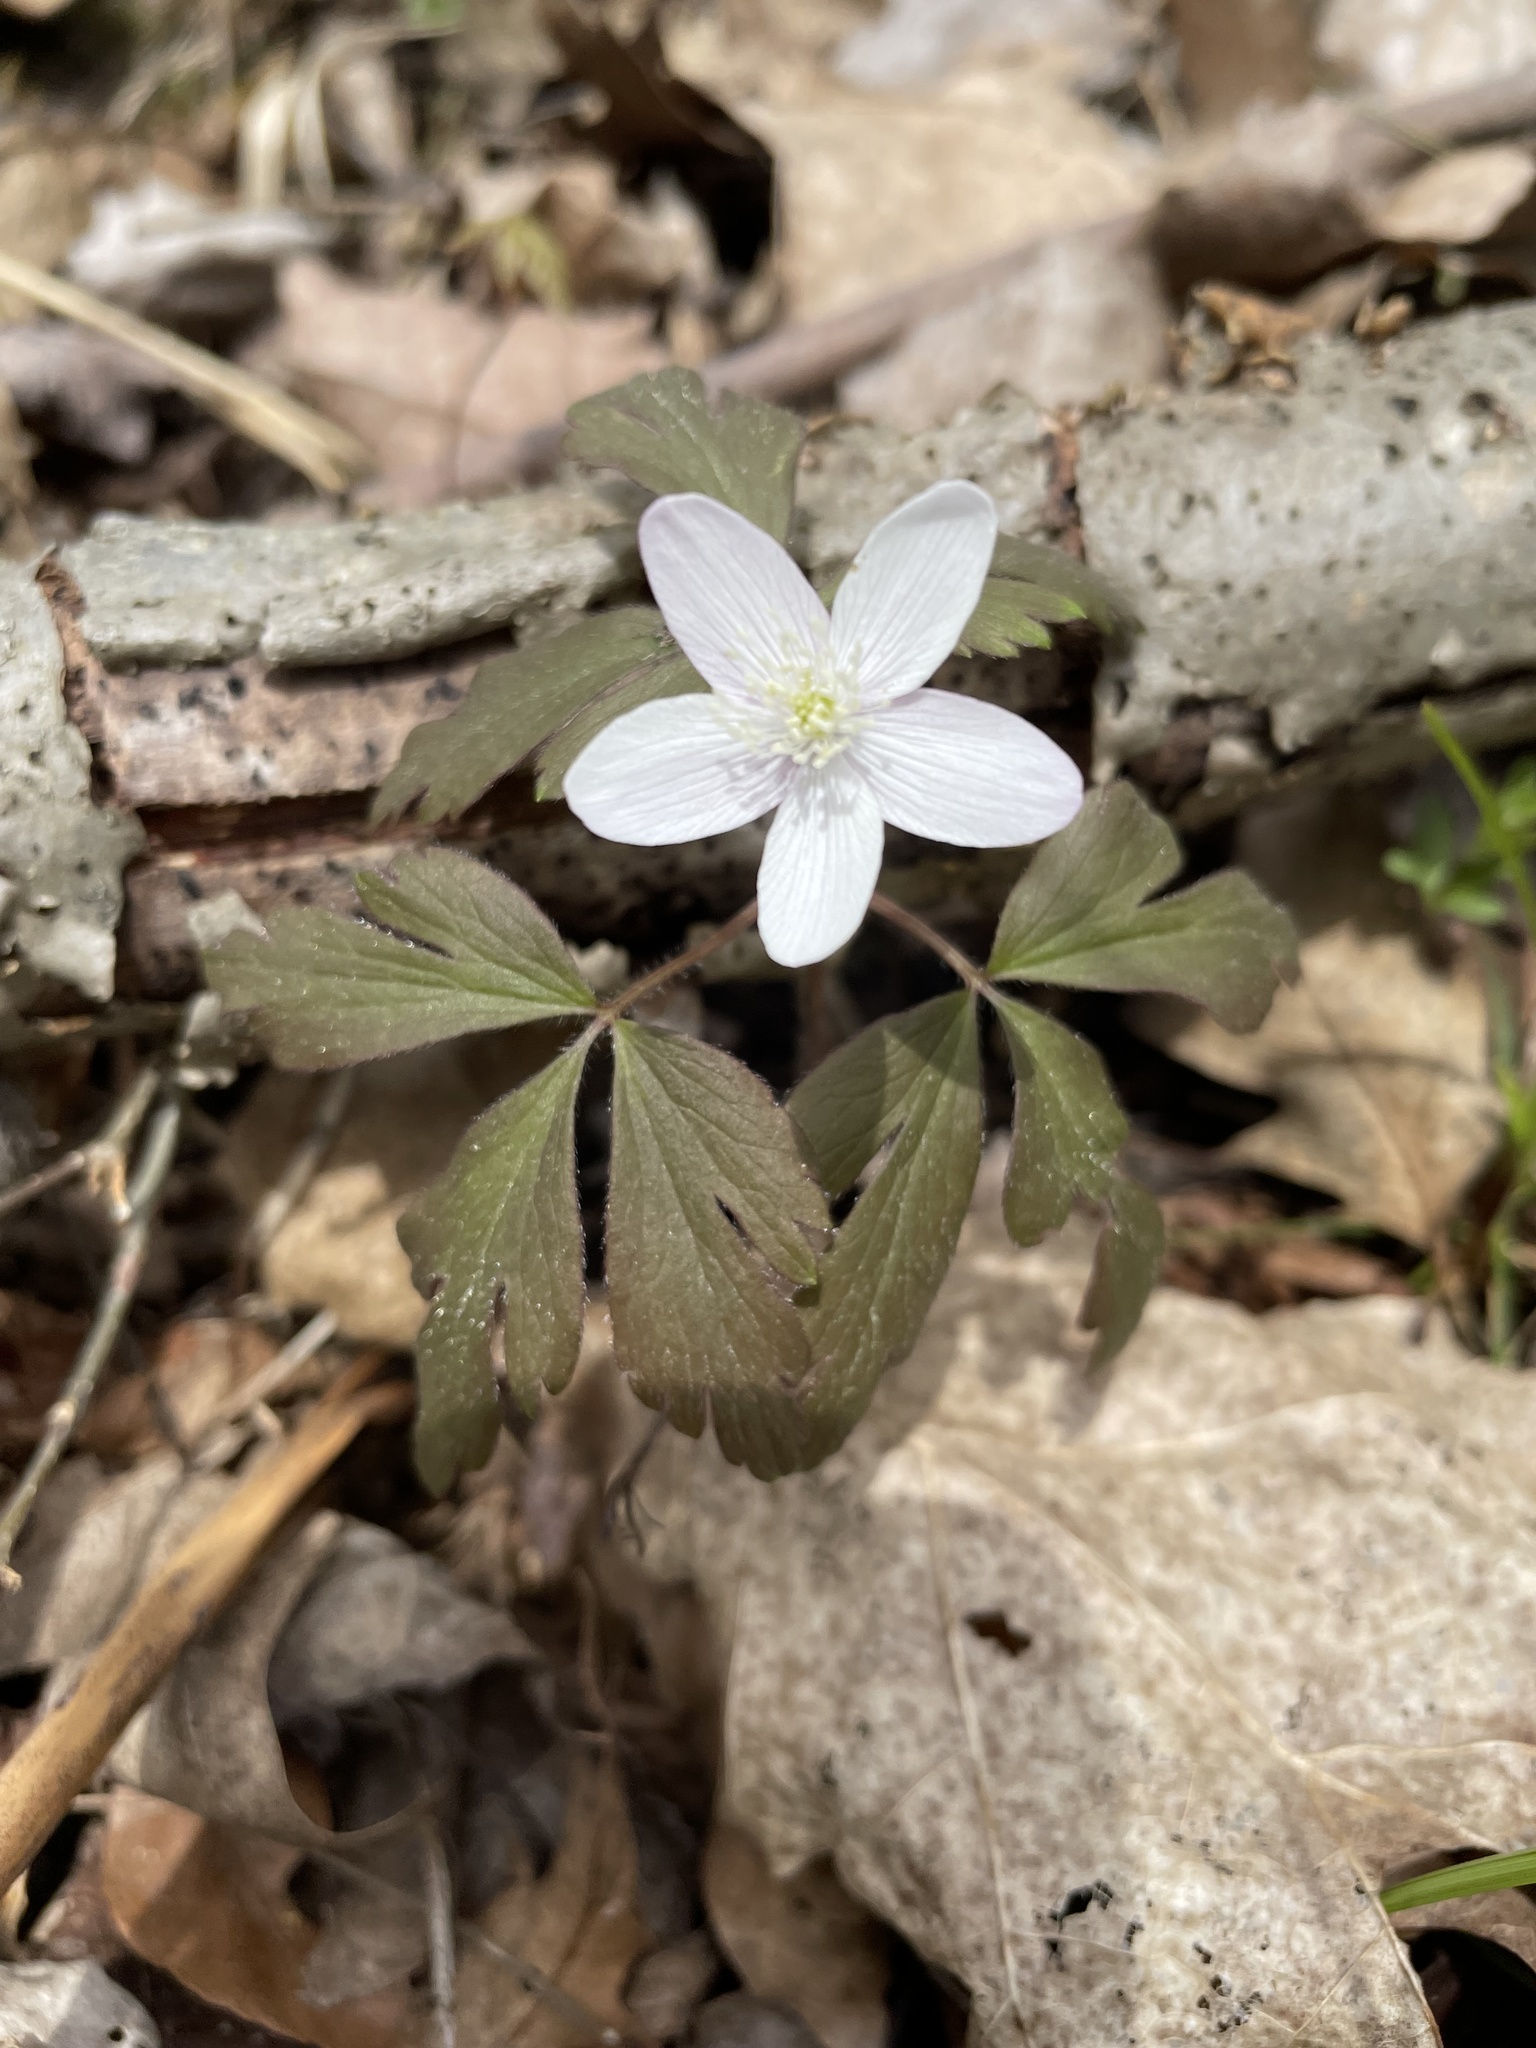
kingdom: Plantae
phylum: Tracheophyta
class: Magnoliopsida
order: Ranunculales
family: Ranunculaceae
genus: Anemone
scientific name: Anemone quinquefolia
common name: Wood anemone
